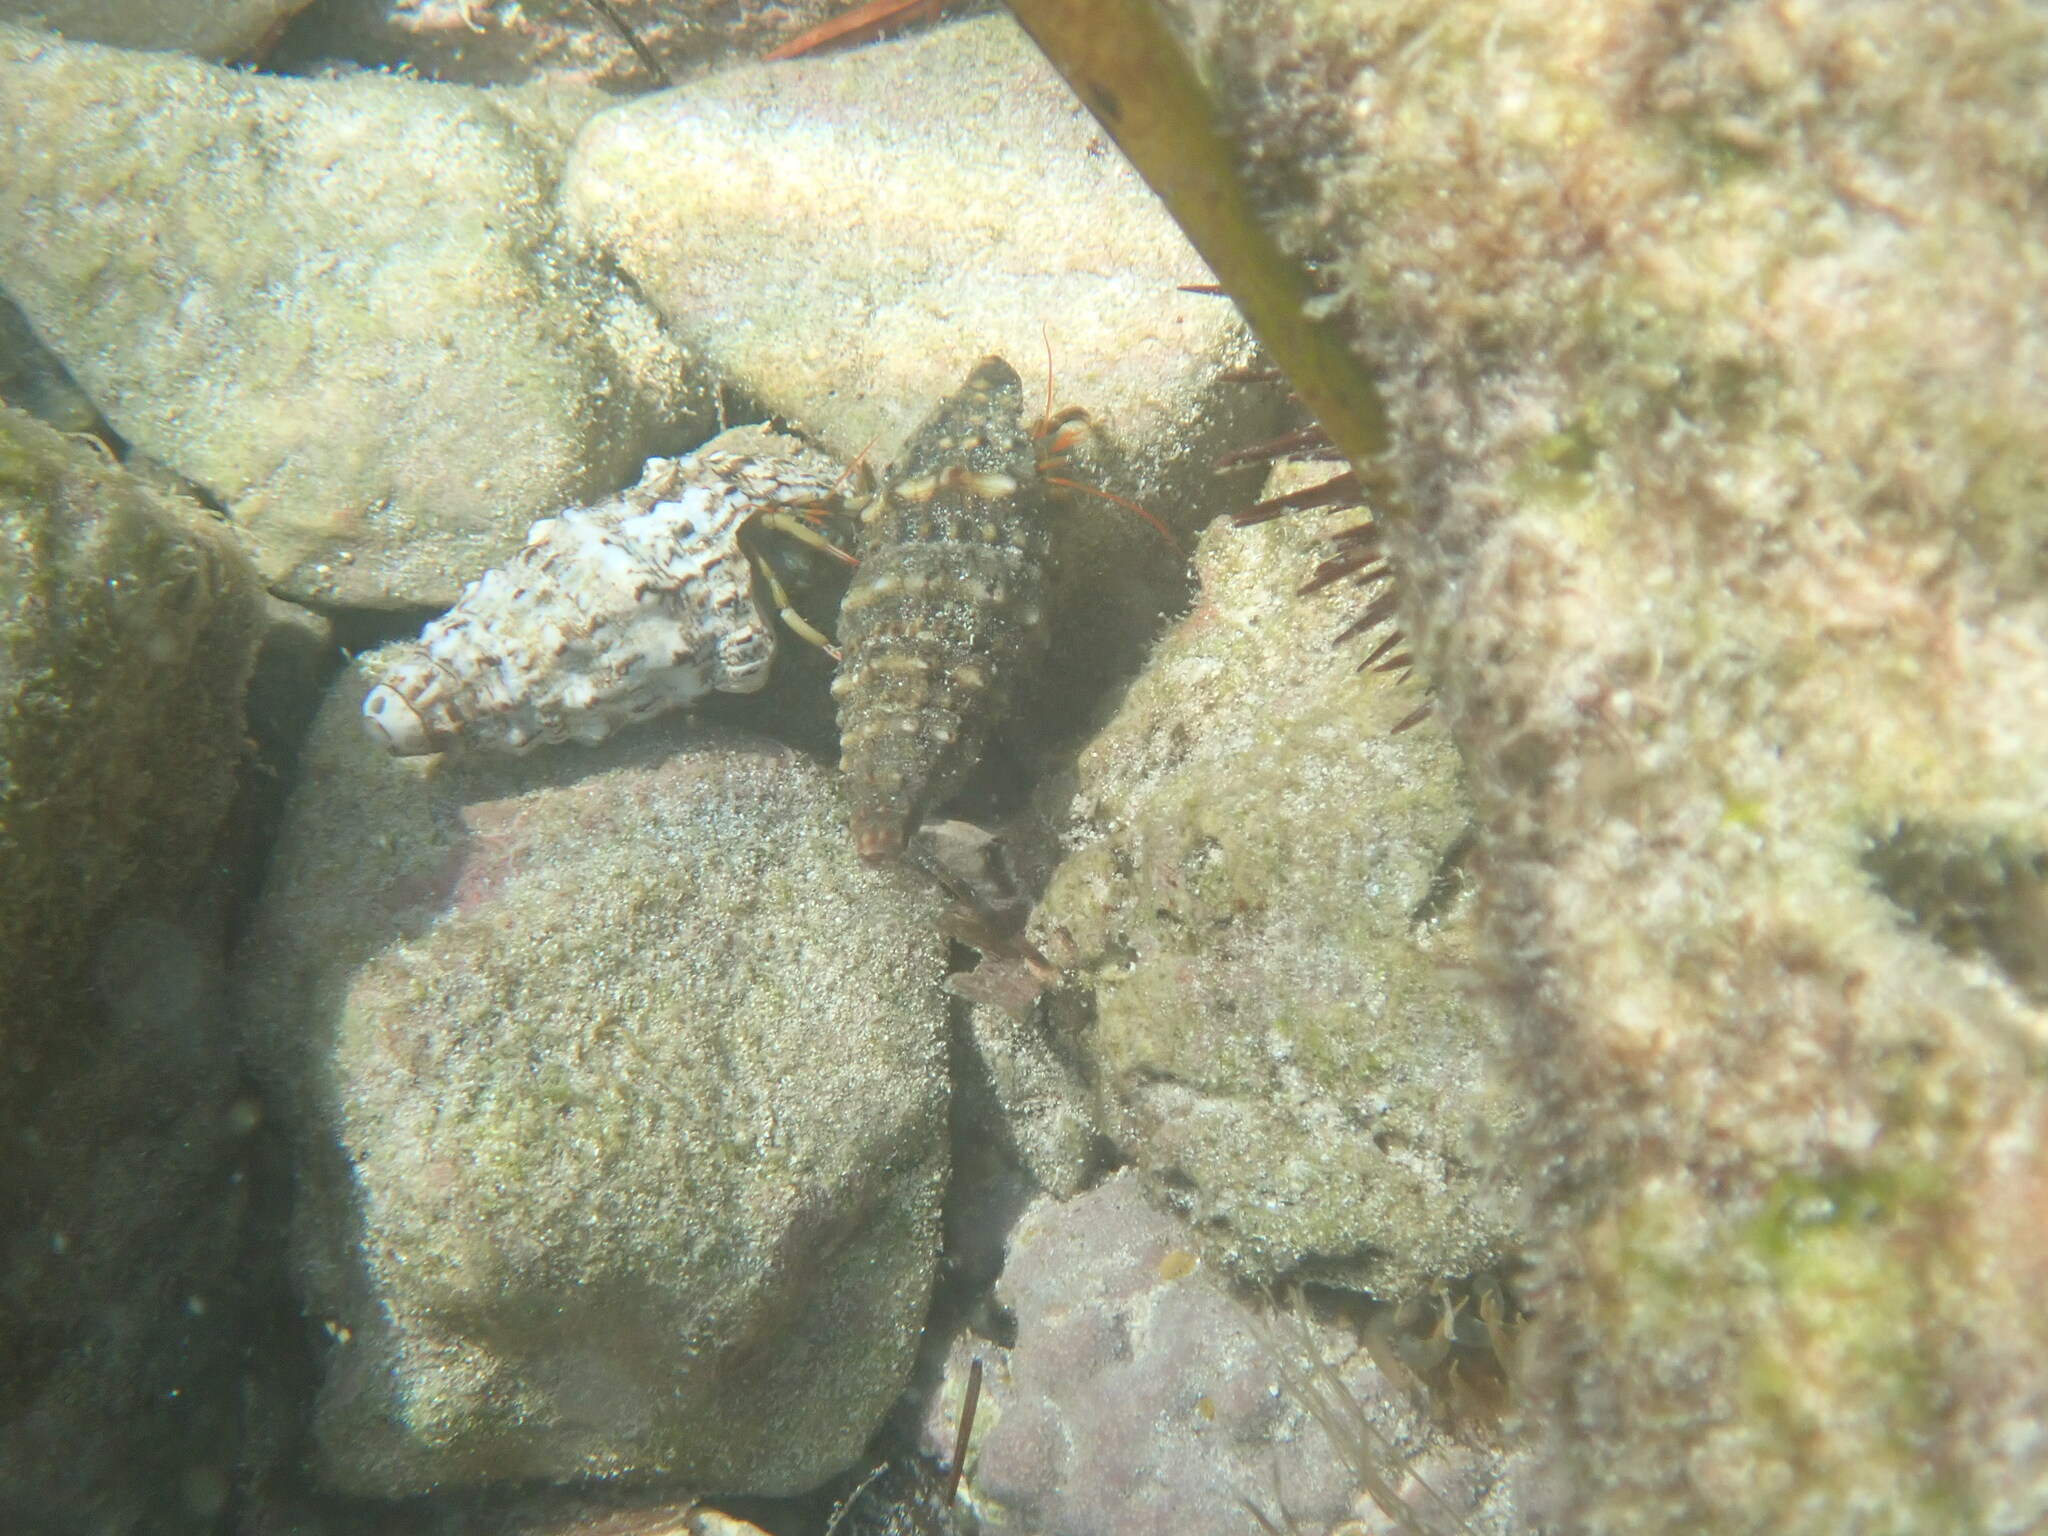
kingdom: Animalia
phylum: Arthropoda
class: Malacostraca
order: Decapoda
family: Diogenidae
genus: Clibanarius
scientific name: Clibanarius erythropus
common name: Hermit crab
